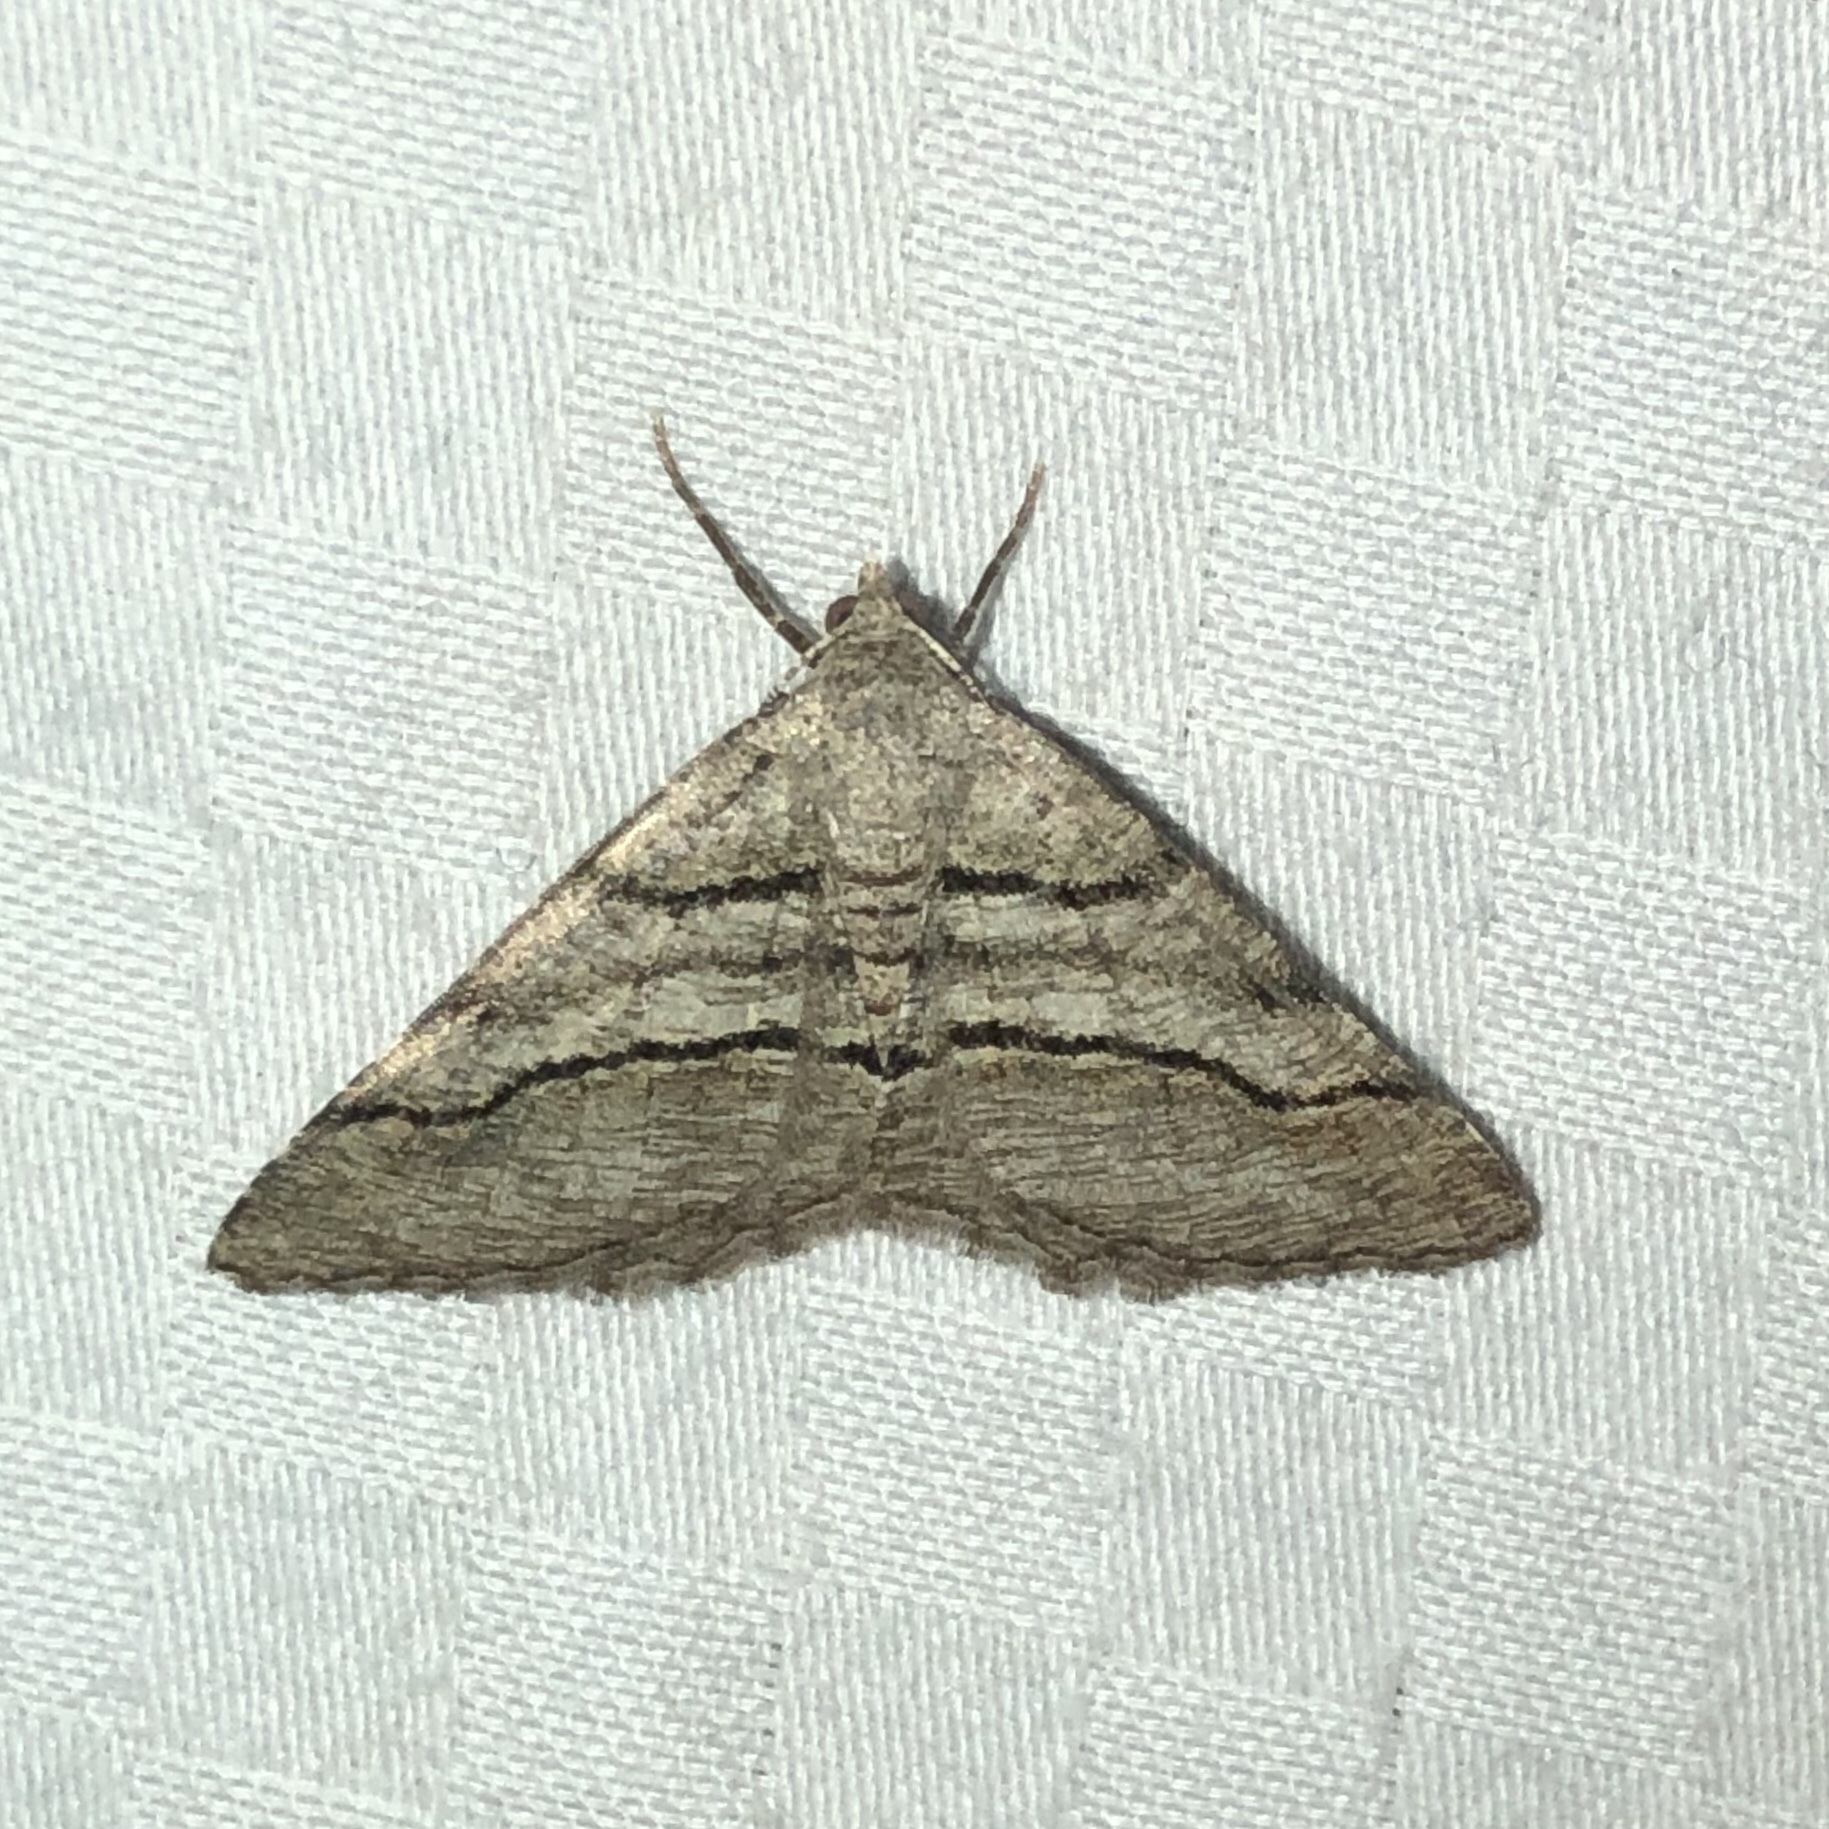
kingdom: Animalia
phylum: Arthropoda
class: Insecta
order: Lepidoptera
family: Geometridae
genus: Digrammia
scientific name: Digrammia continuata
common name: Curve-lined angle
